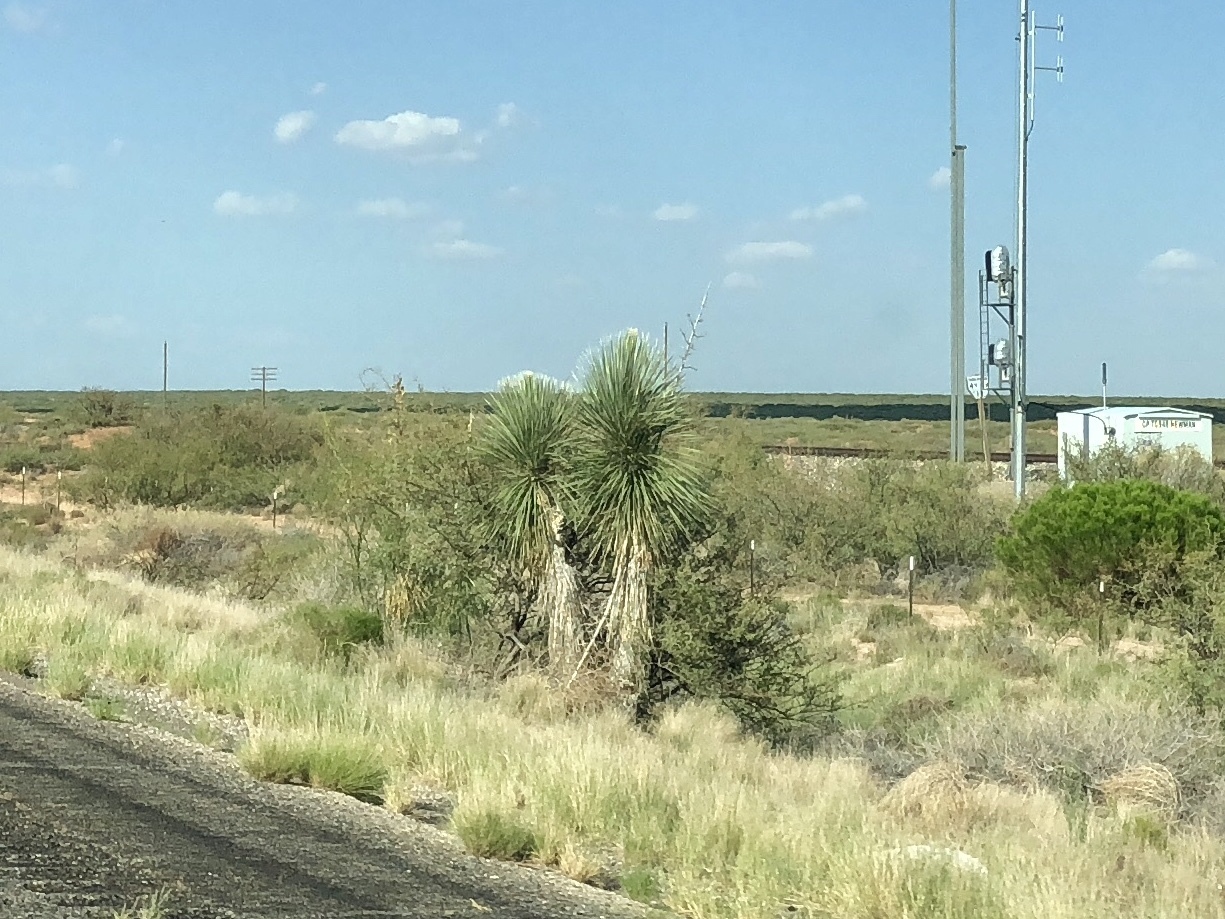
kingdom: Plantae
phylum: Tracheophyta
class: Liliopsida
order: Asparagales
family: Asparagaceae
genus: Yucca
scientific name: Yucca elata
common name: Palmella
